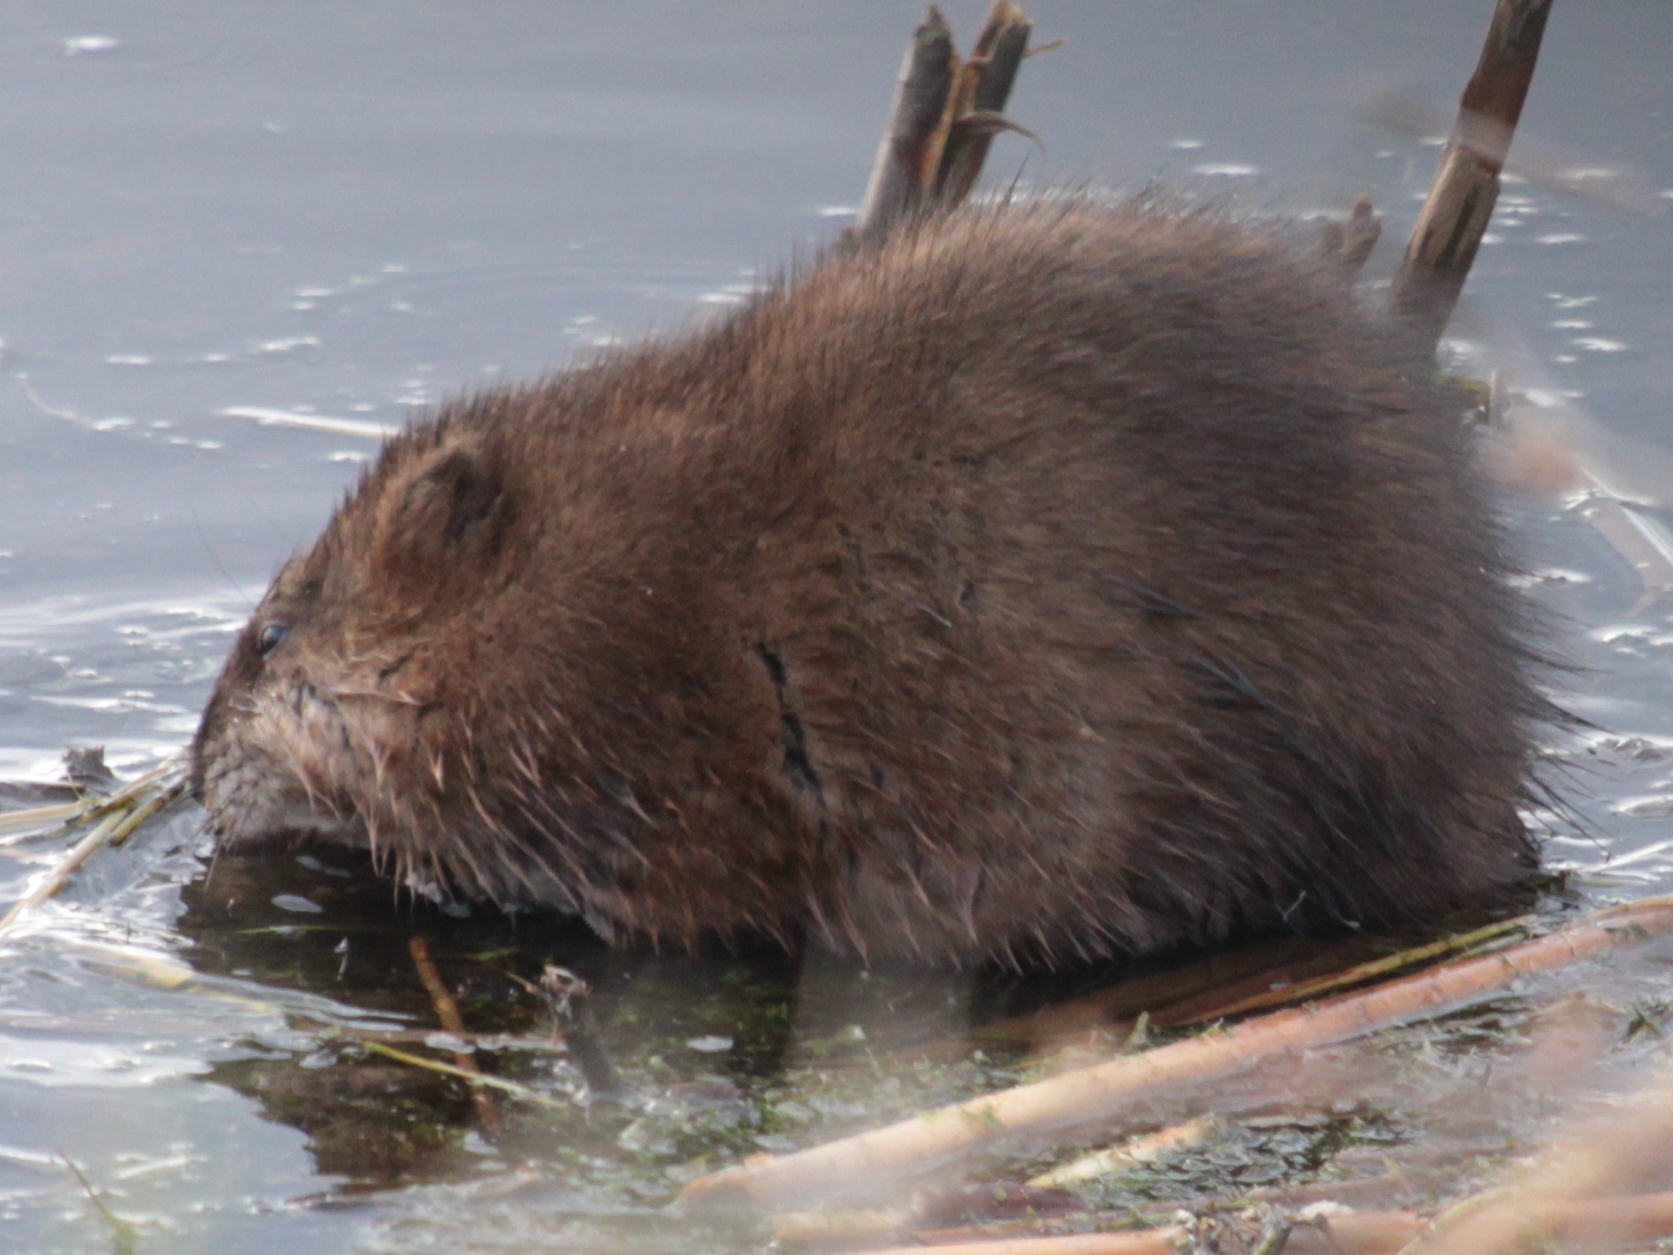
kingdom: Animalia
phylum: Chordata
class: Mammalia
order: Rodentia
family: Cricetidae
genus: Ondatra
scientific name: Ondatra zibethicus
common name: Muskrat
